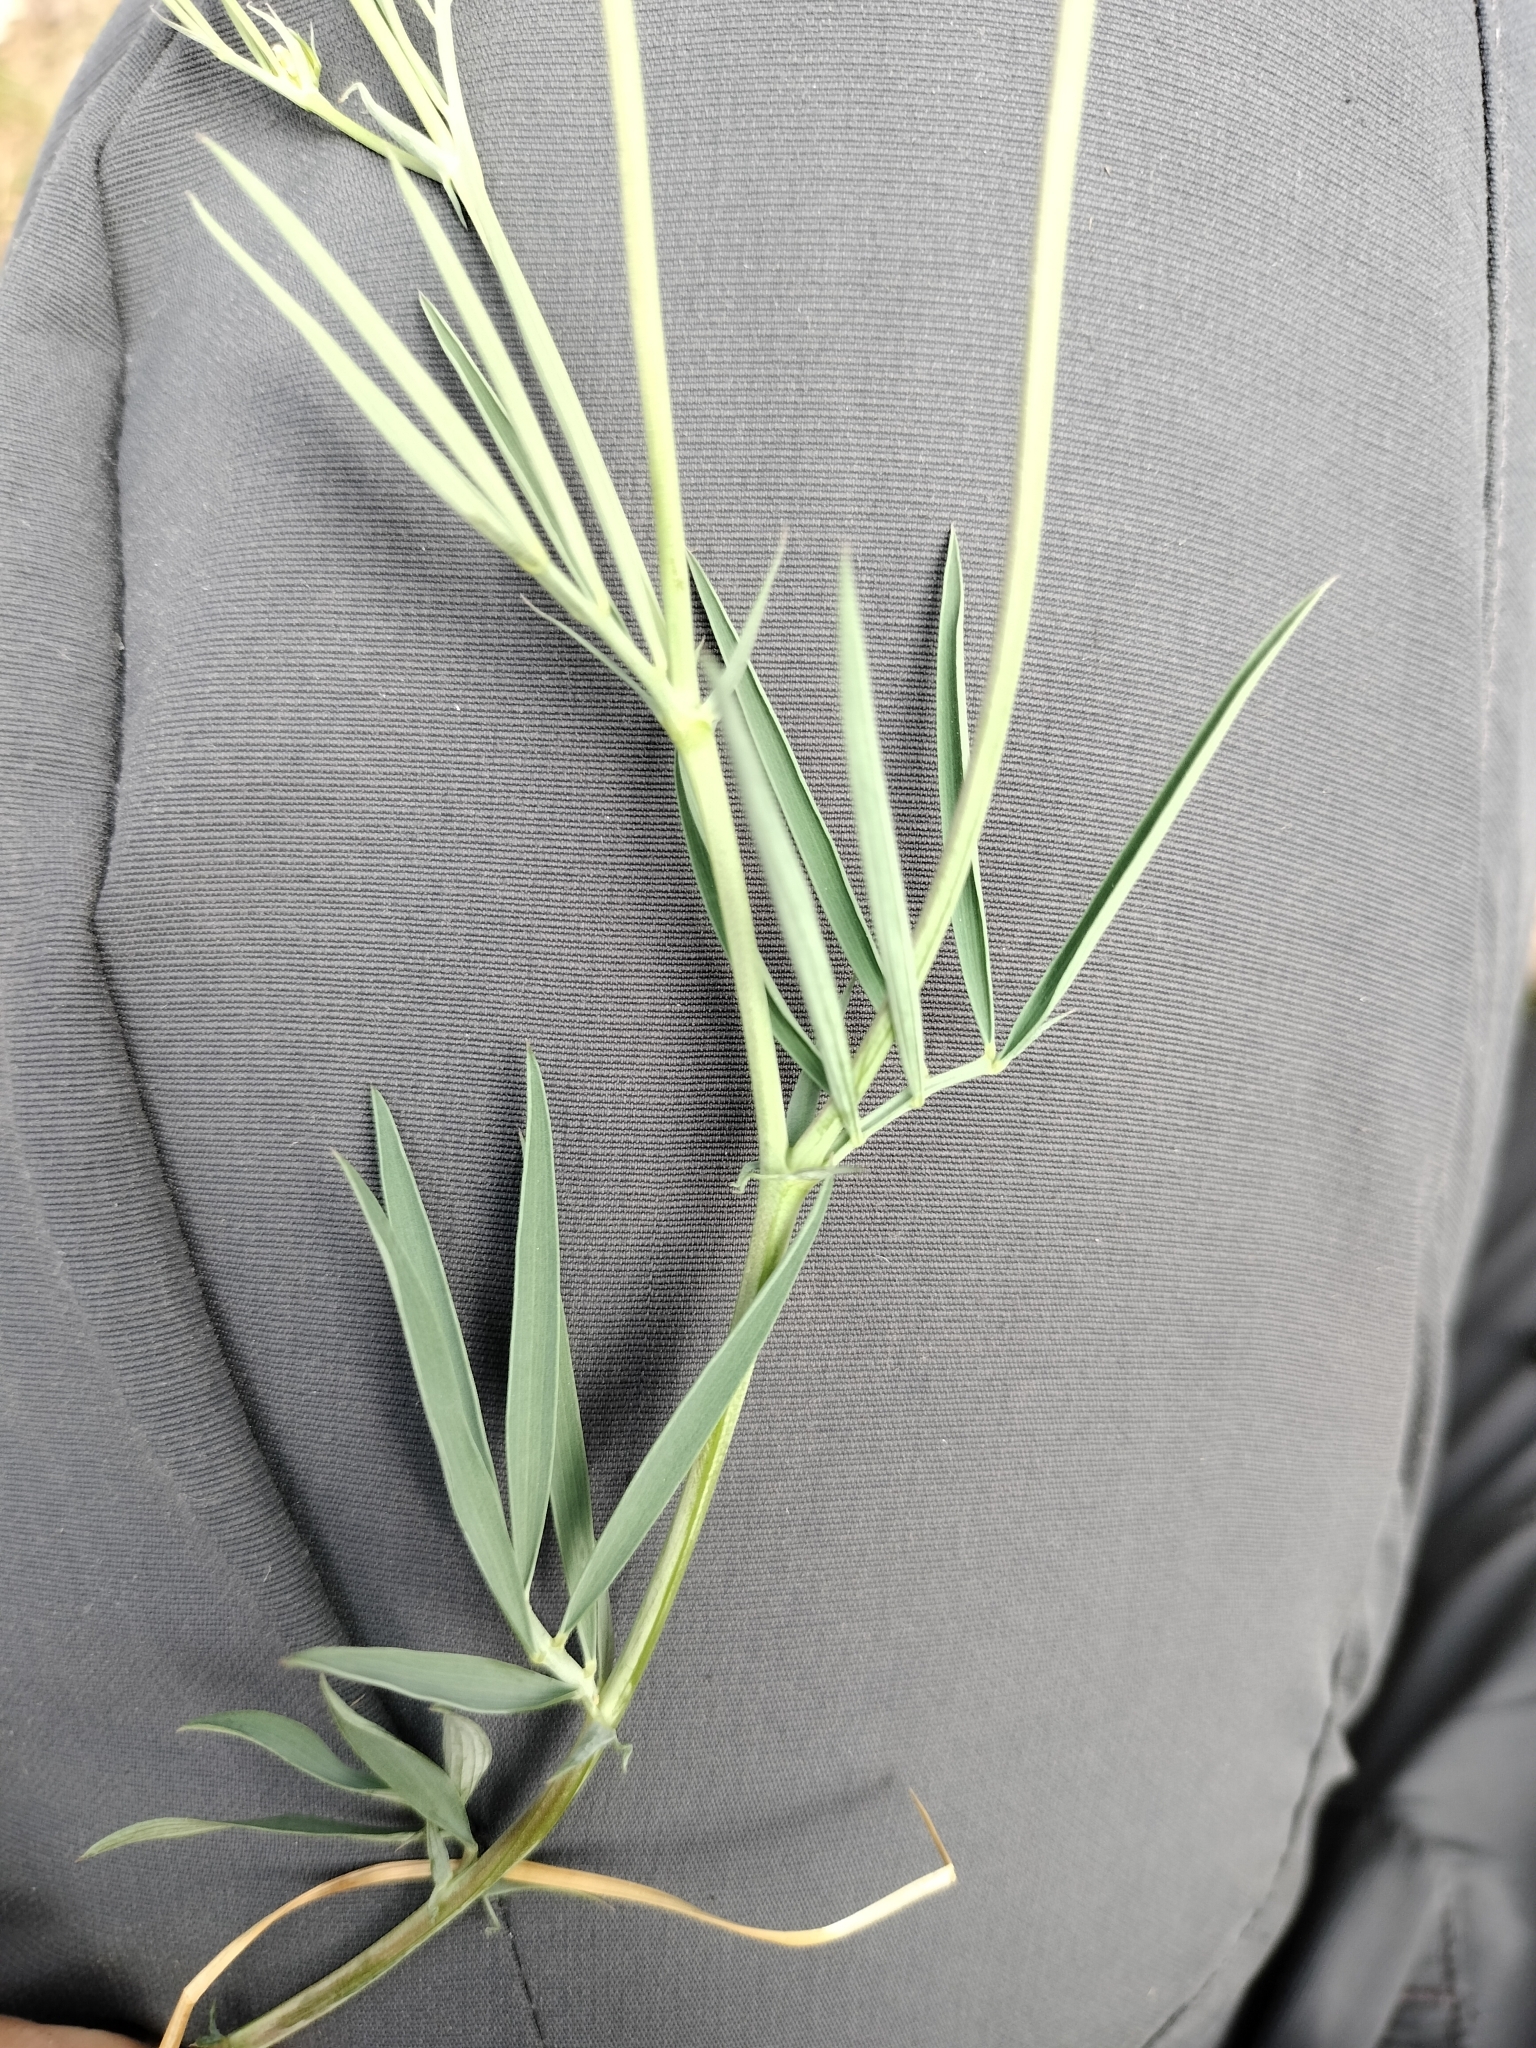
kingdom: Plantae
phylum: Tracheophyta
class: Magnoliopsida
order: Fabales
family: Fabaceae
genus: Lathyrus
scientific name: Lathyrus latifolius
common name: Perennial pea
